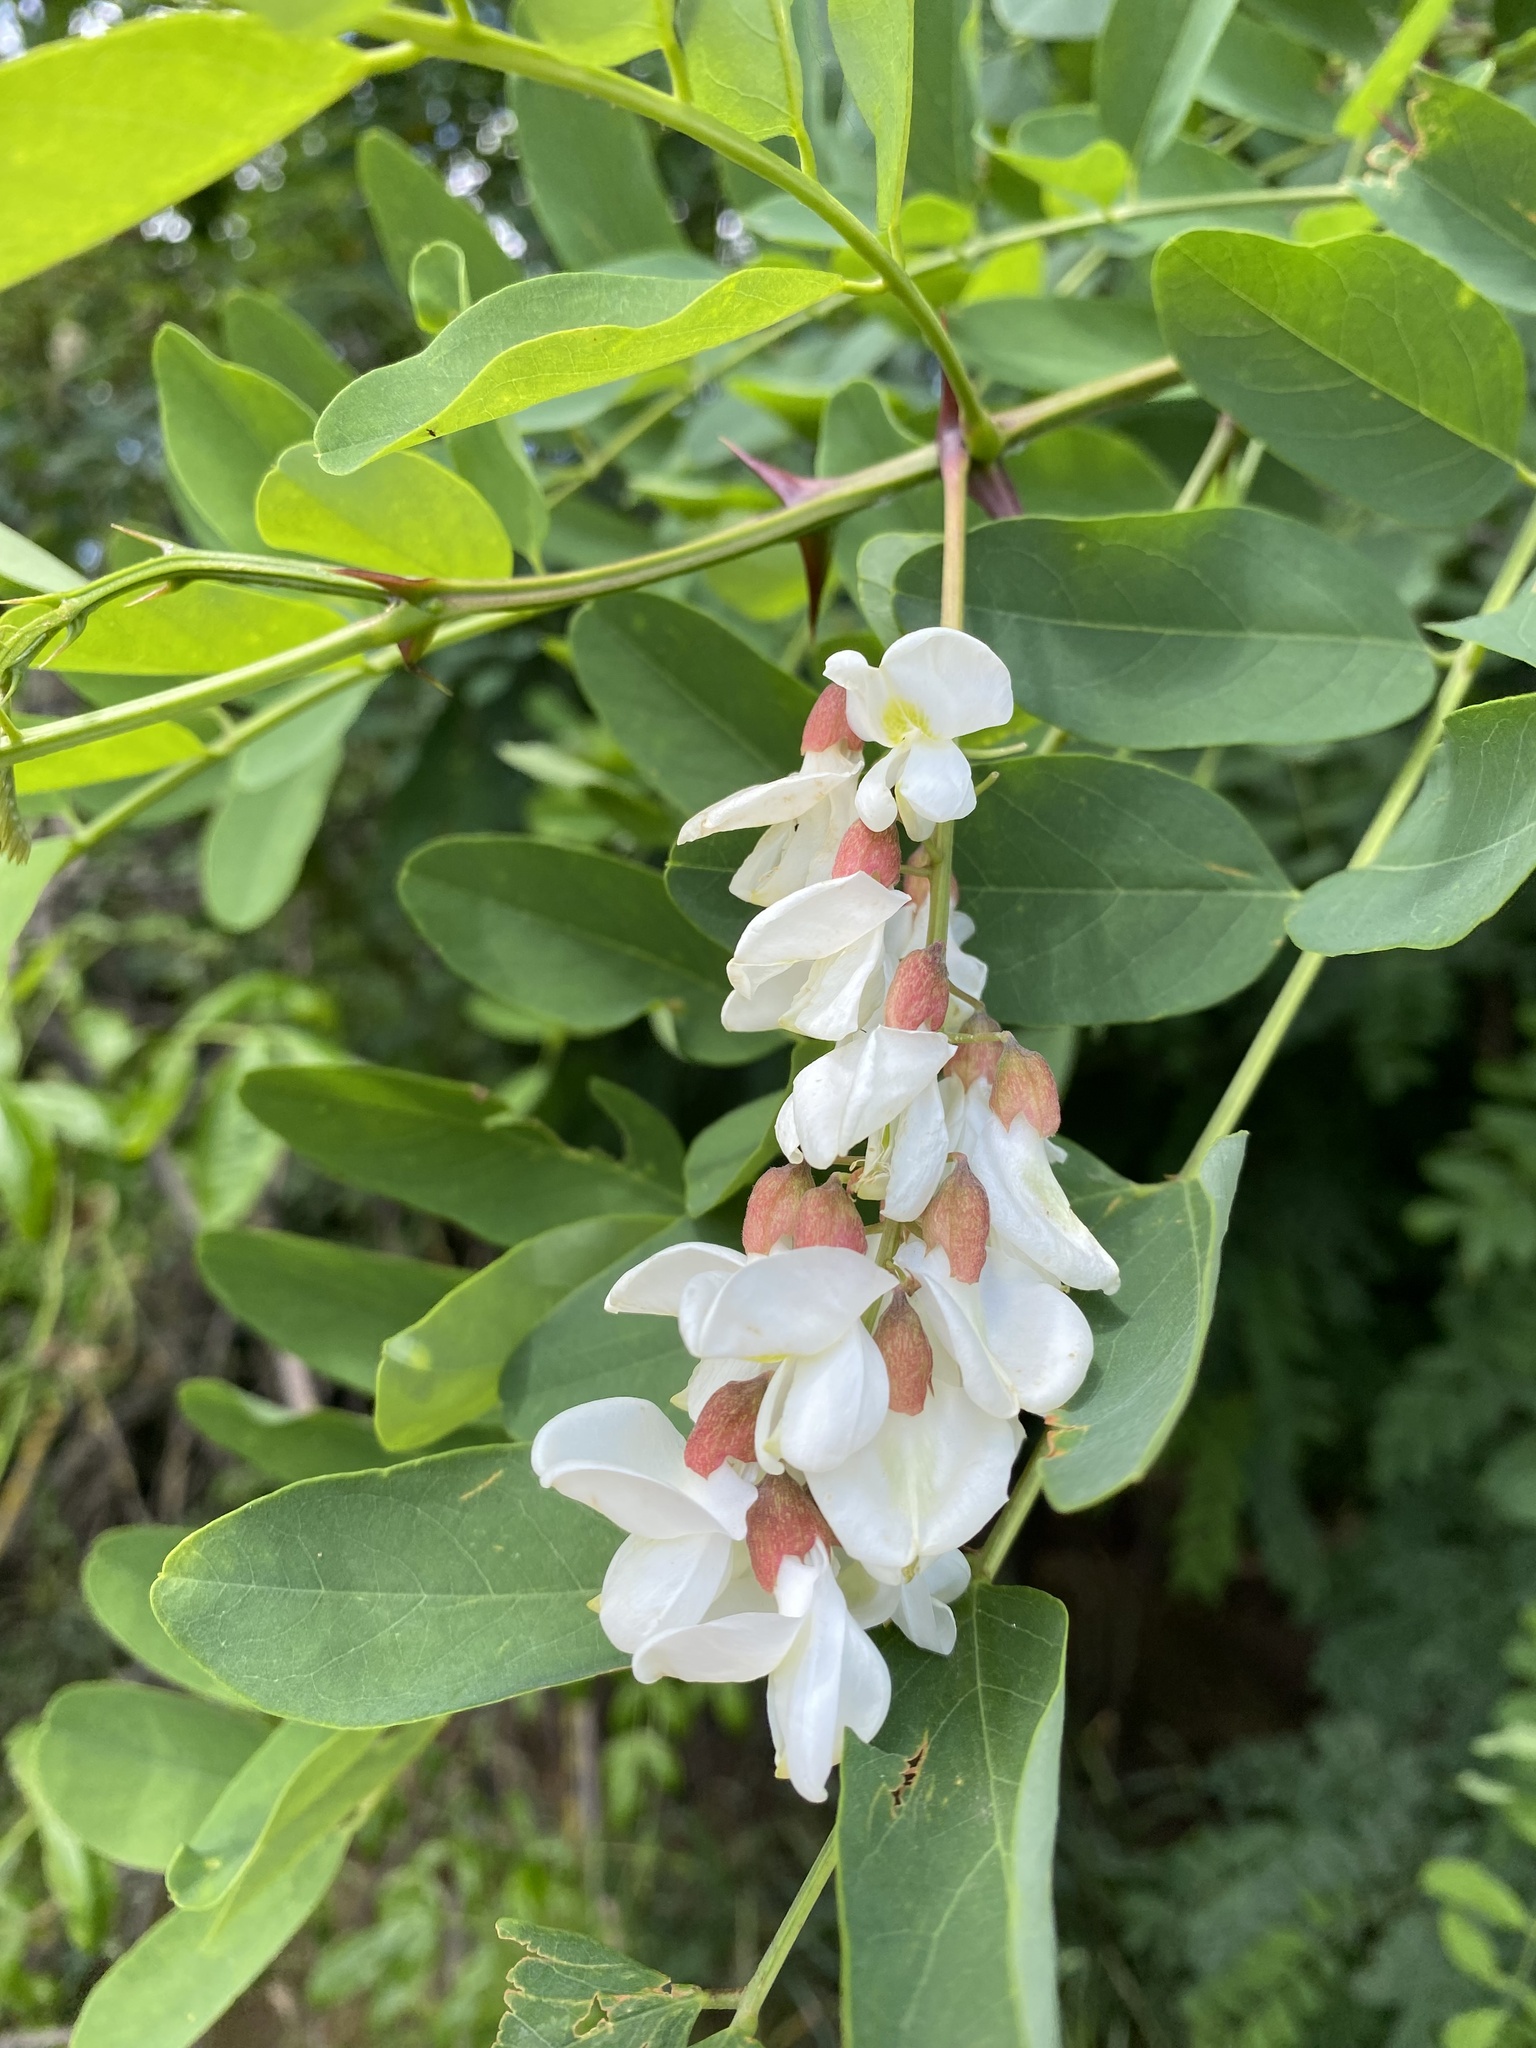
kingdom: Plantae
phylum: Tracheophyta
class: Magnoliopsida
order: Fabales
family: Fabaceae
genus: Robinia
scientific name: Robinia pseudoacacia
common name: Black locust
